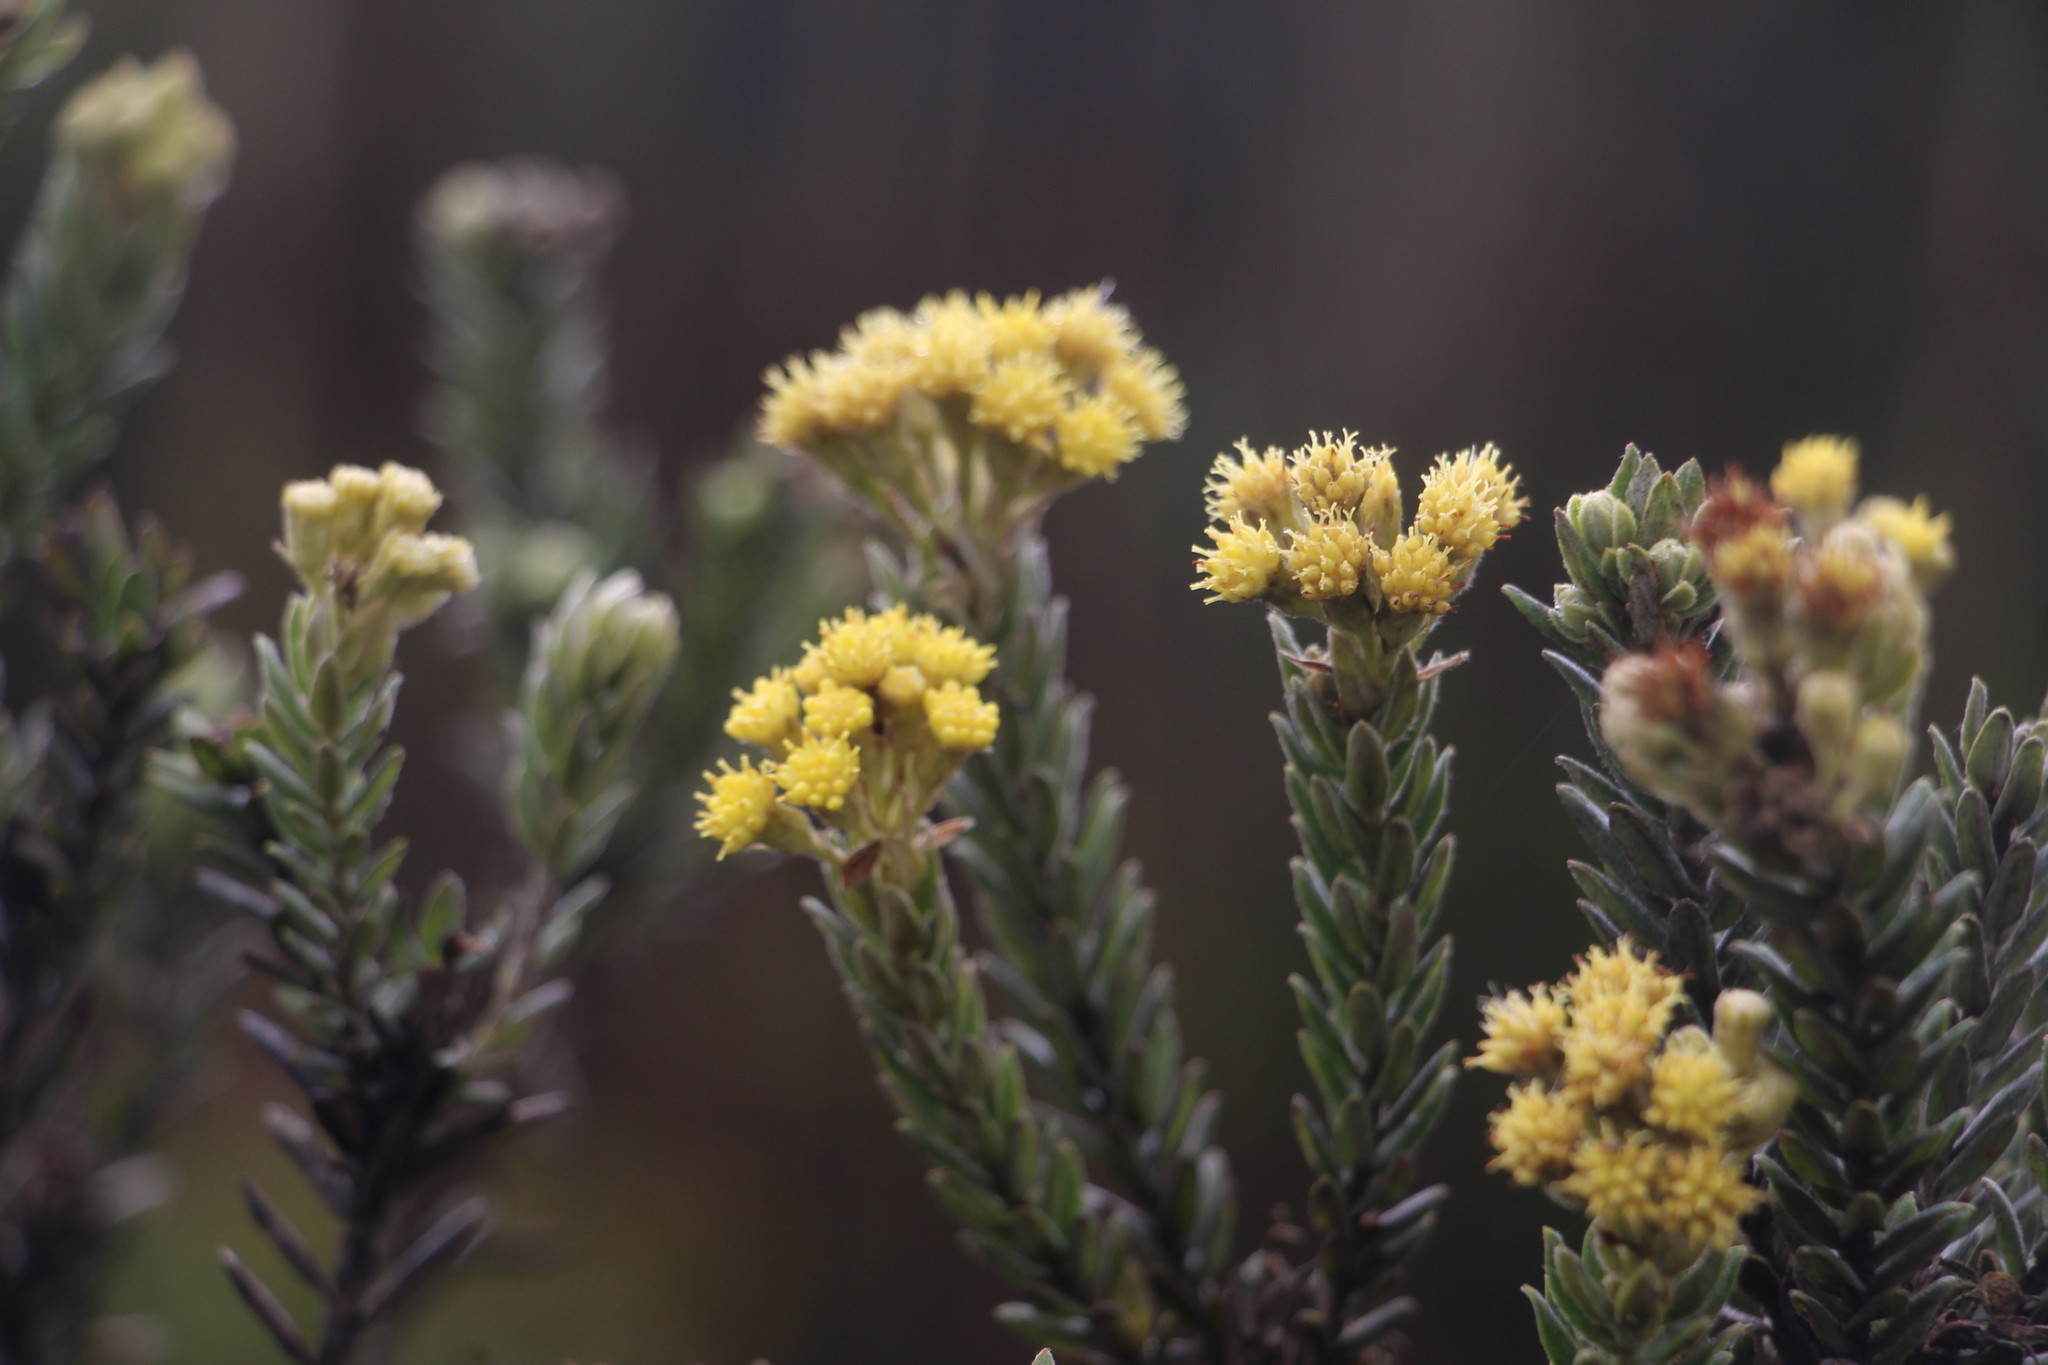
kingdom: Plantae
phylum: Tracheophyta
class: Magnoliopsida
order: Asterales
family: Asteraceae
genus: Monticalia
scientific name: Monticalia ledifolia
